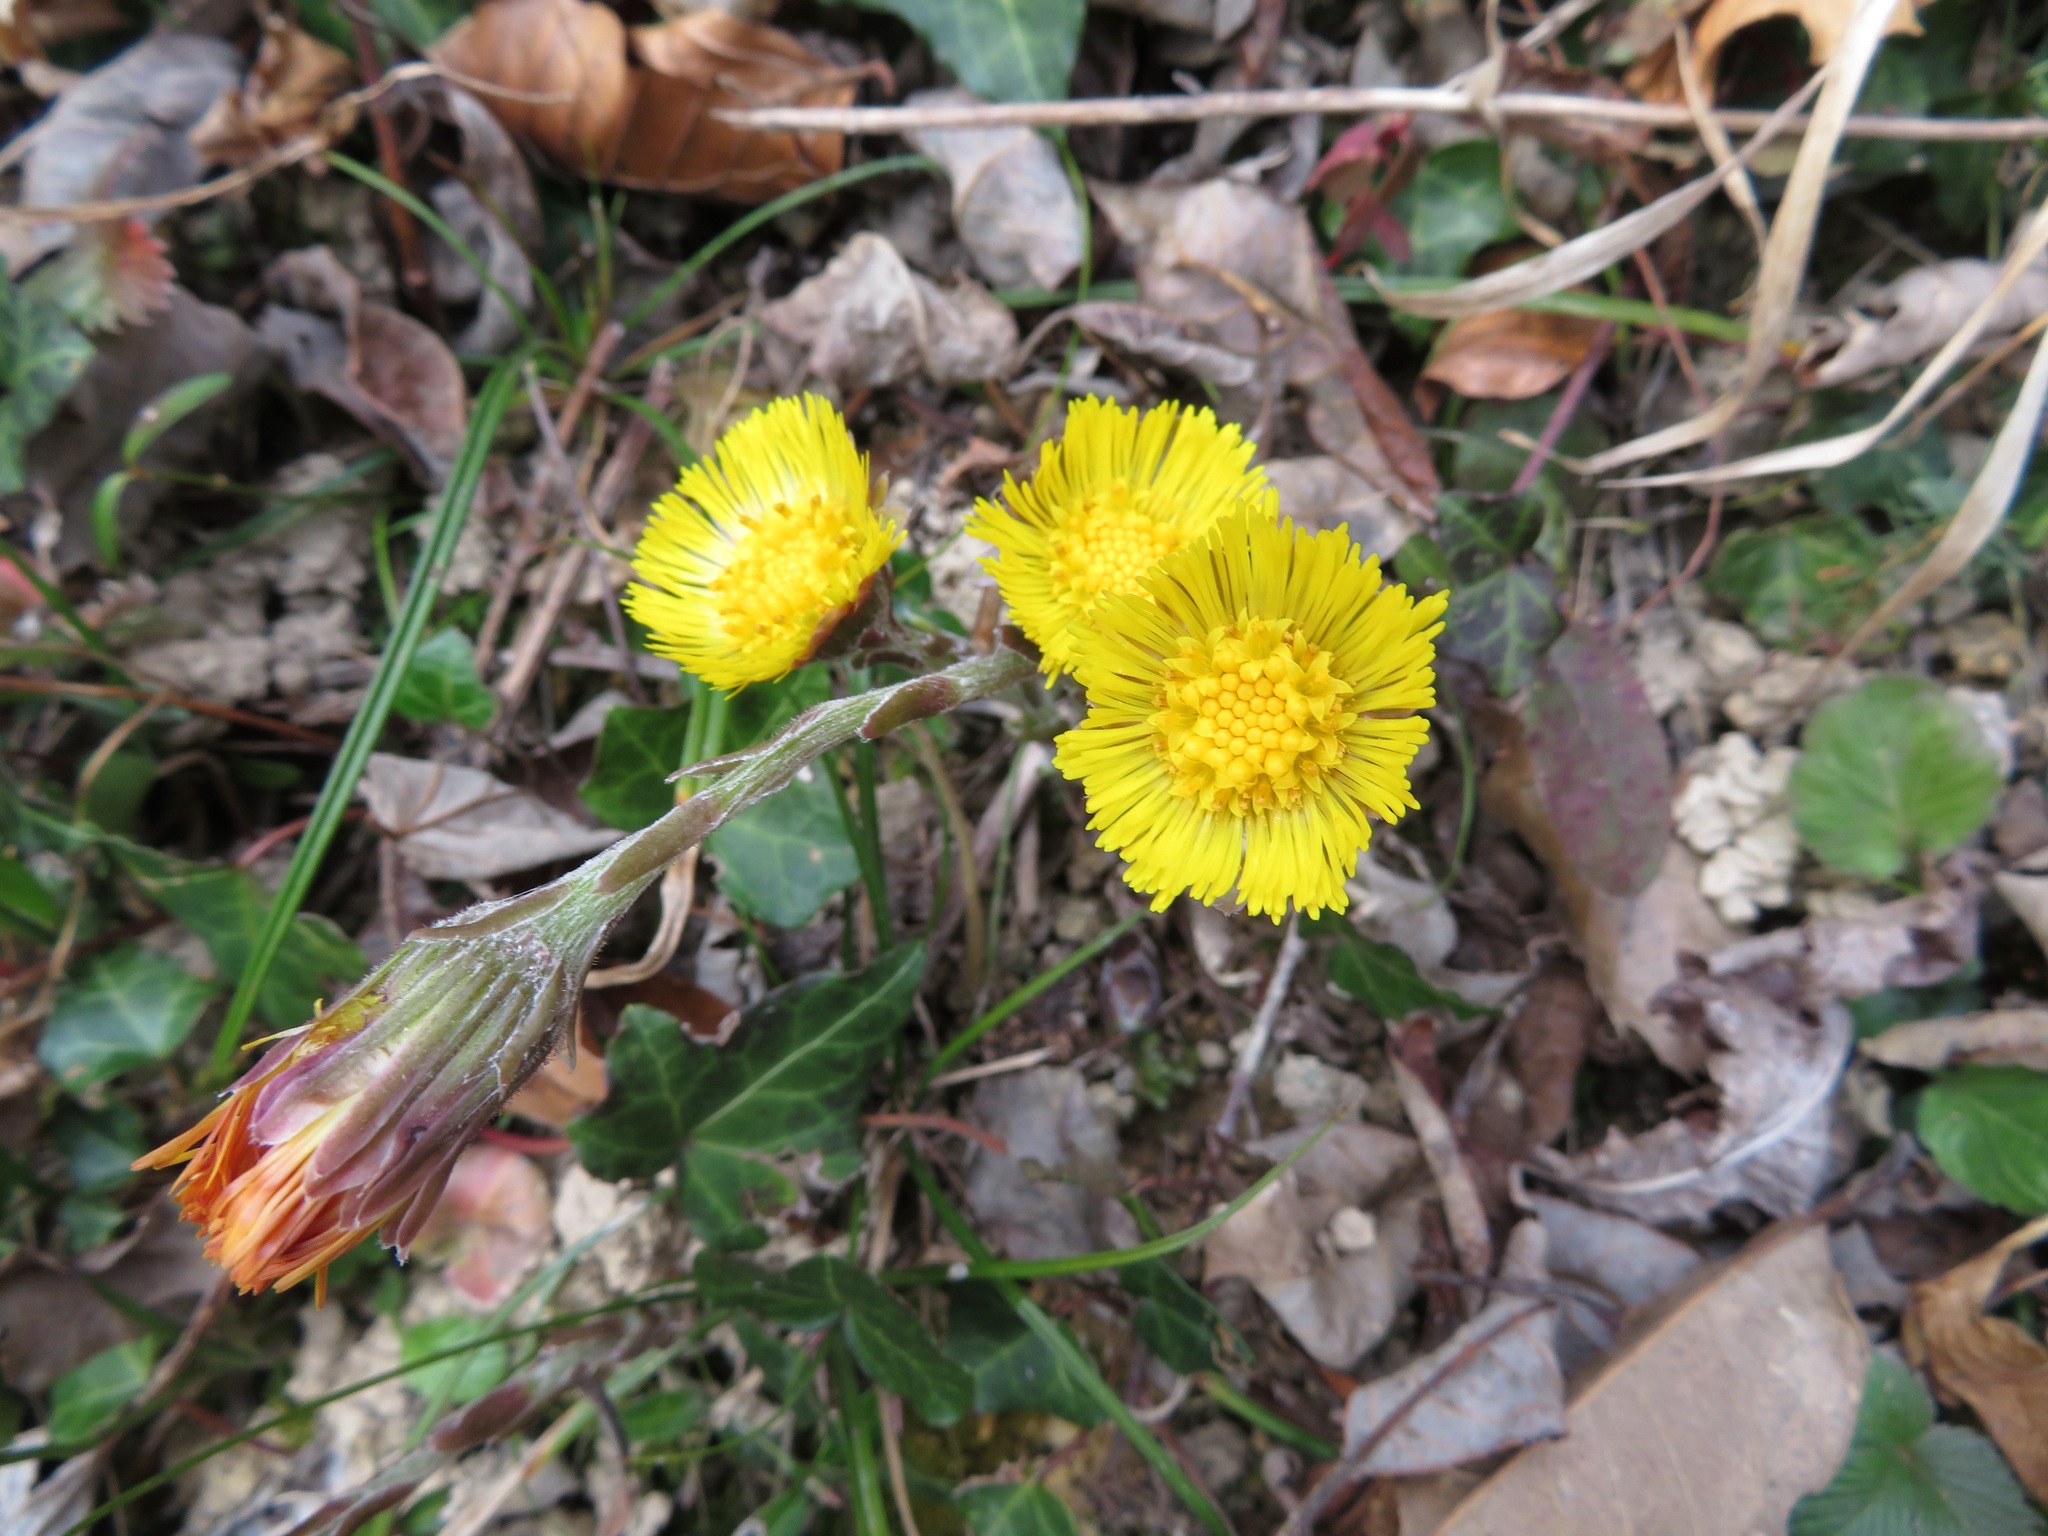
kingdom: Plantae
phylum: Tracheophyta
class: Magnoliopsida
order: Asterales
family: Asteraceae
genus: Tussilago
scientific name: Tussilago farfara
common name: Coltsfoot
